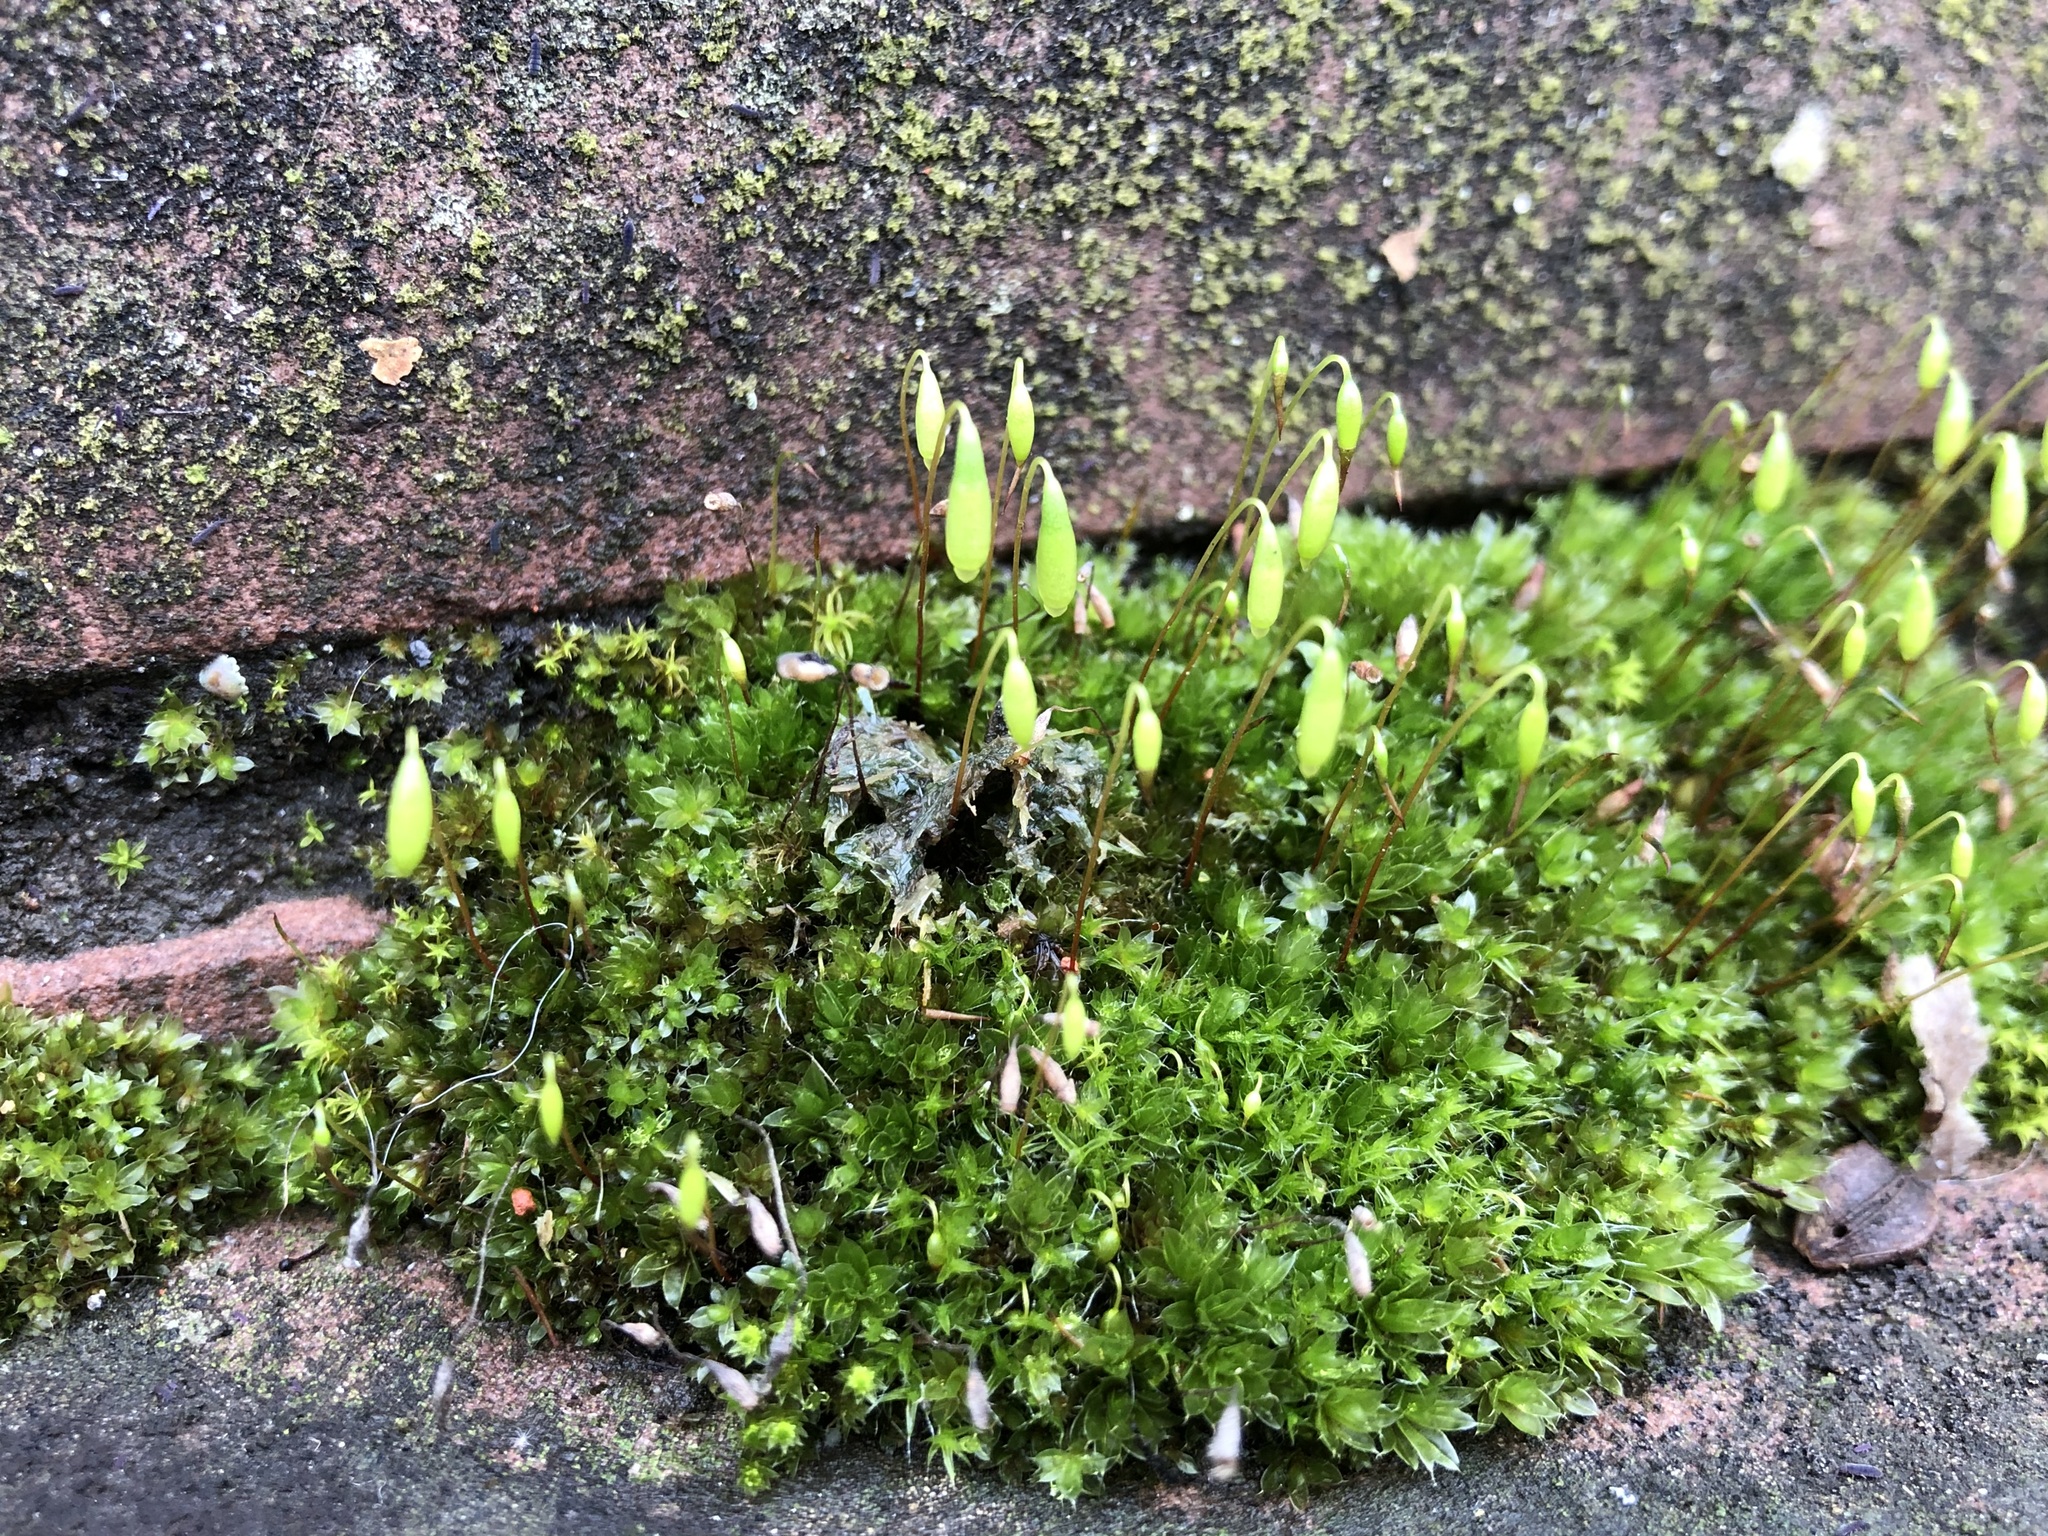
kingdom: Plantae
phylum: Bryophyta
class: Bryopsida
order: Bryales
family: Bryaceae
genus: Rosulabryum
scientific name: Rosulabryum capillare
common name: Capillary thread-moss
